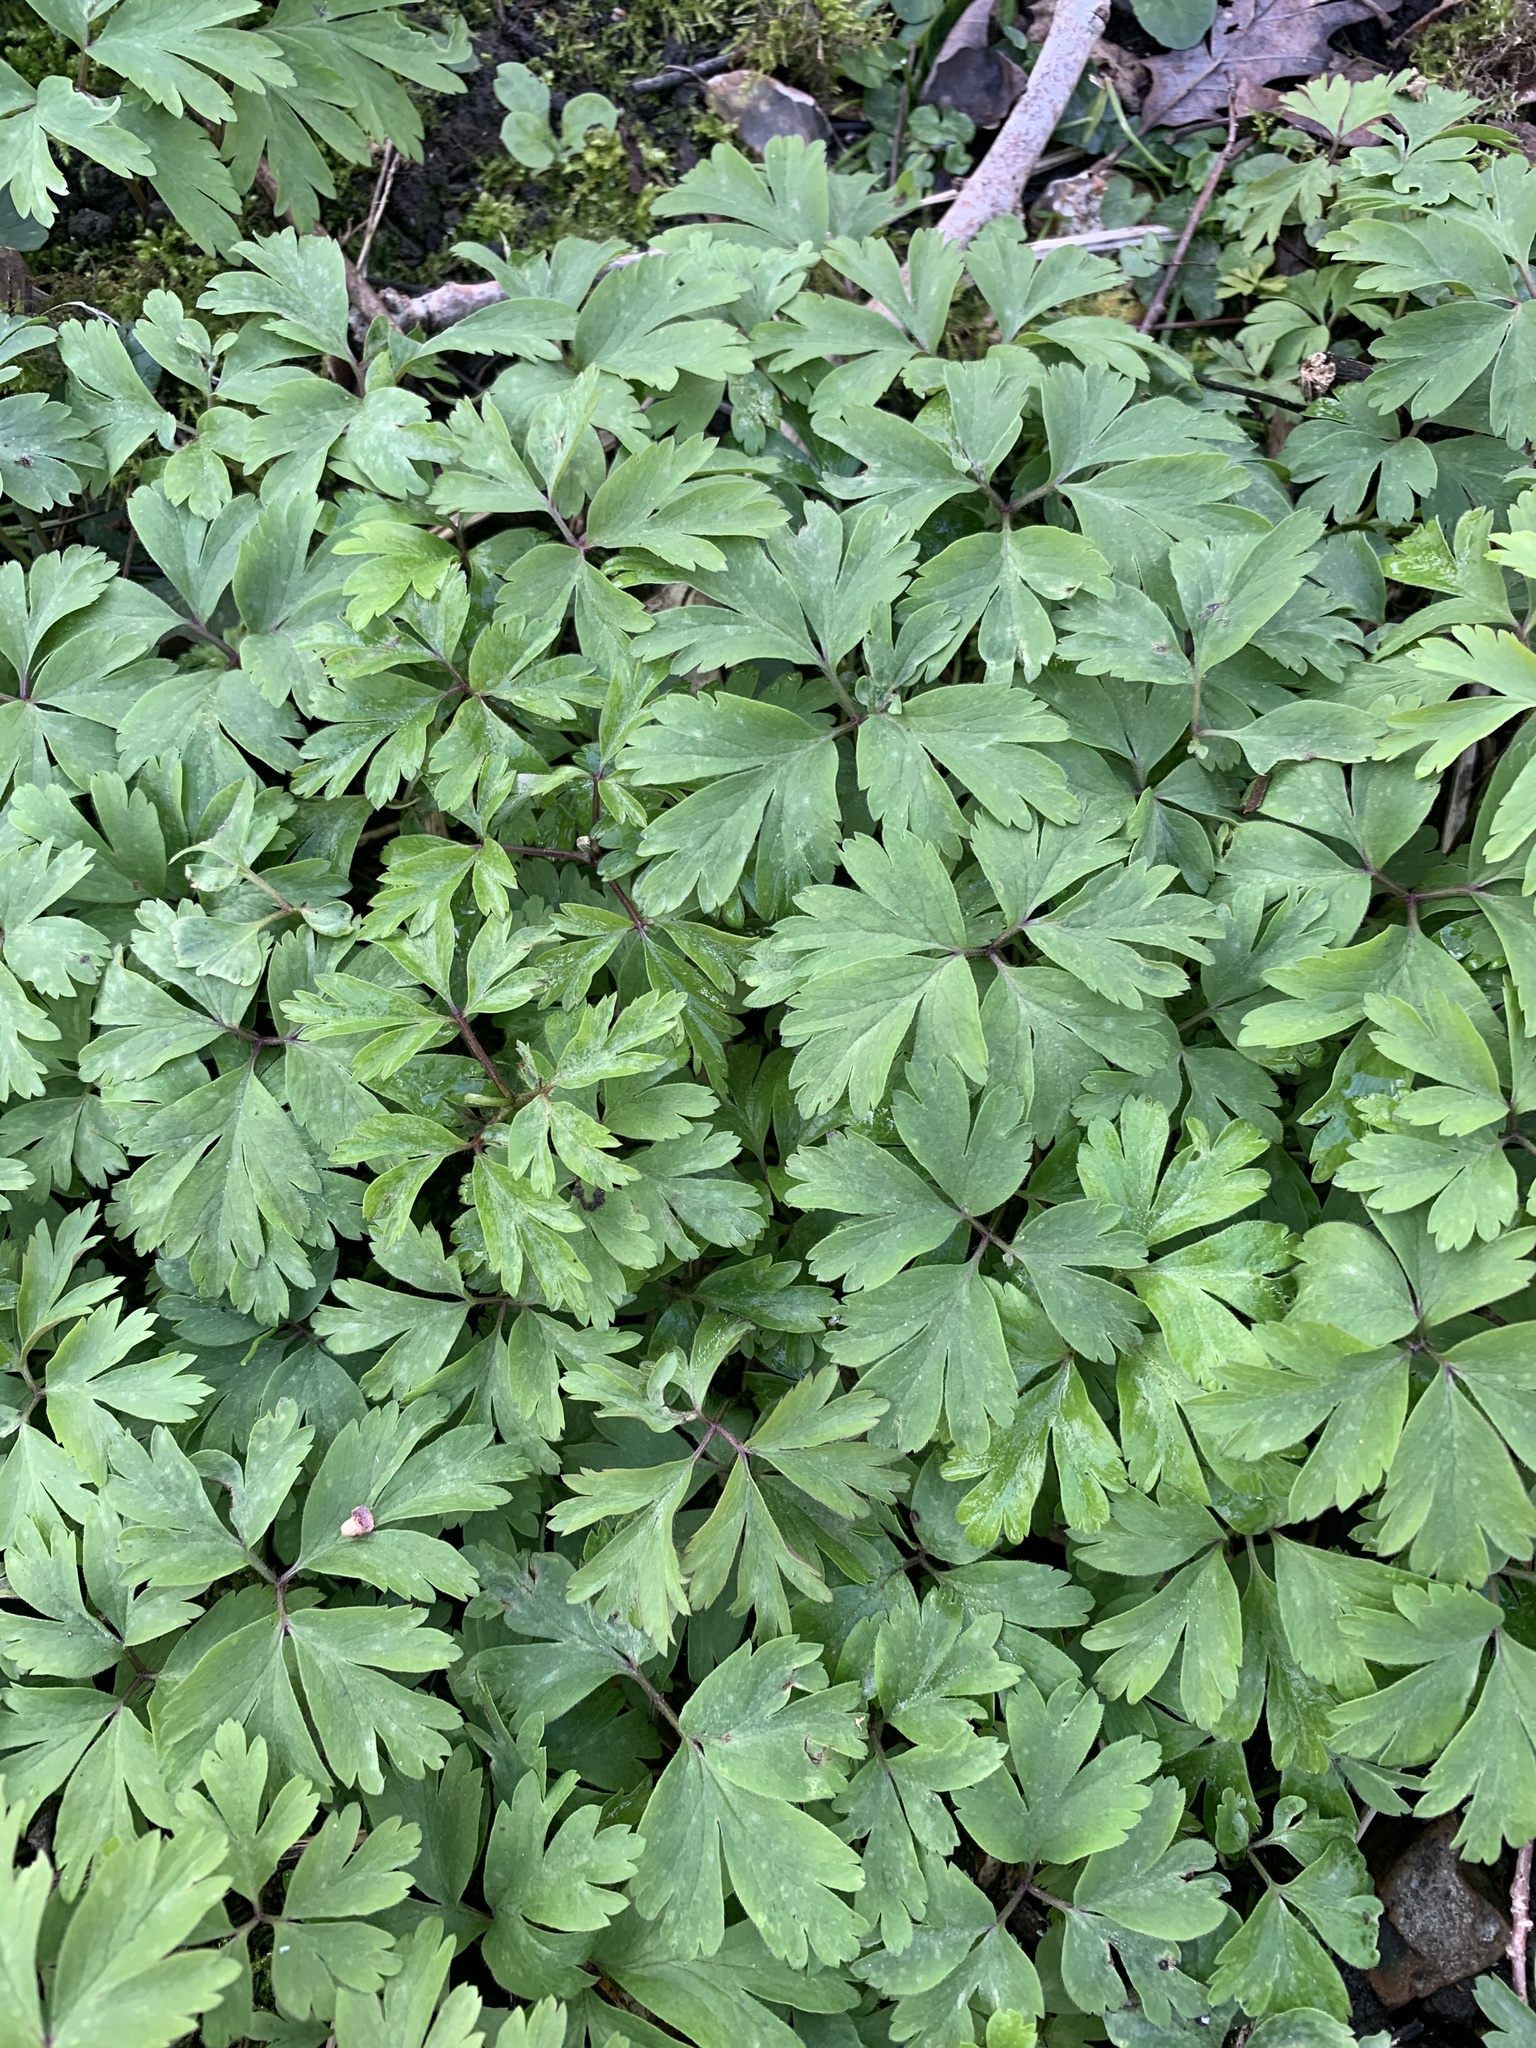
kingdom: Plantae
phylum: Tracheophyta
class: Magnoliopsida
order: Ranunculales
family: Ranunculaceae
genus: Anemone
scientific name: Anemone nemorosa
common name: Wood anemone
